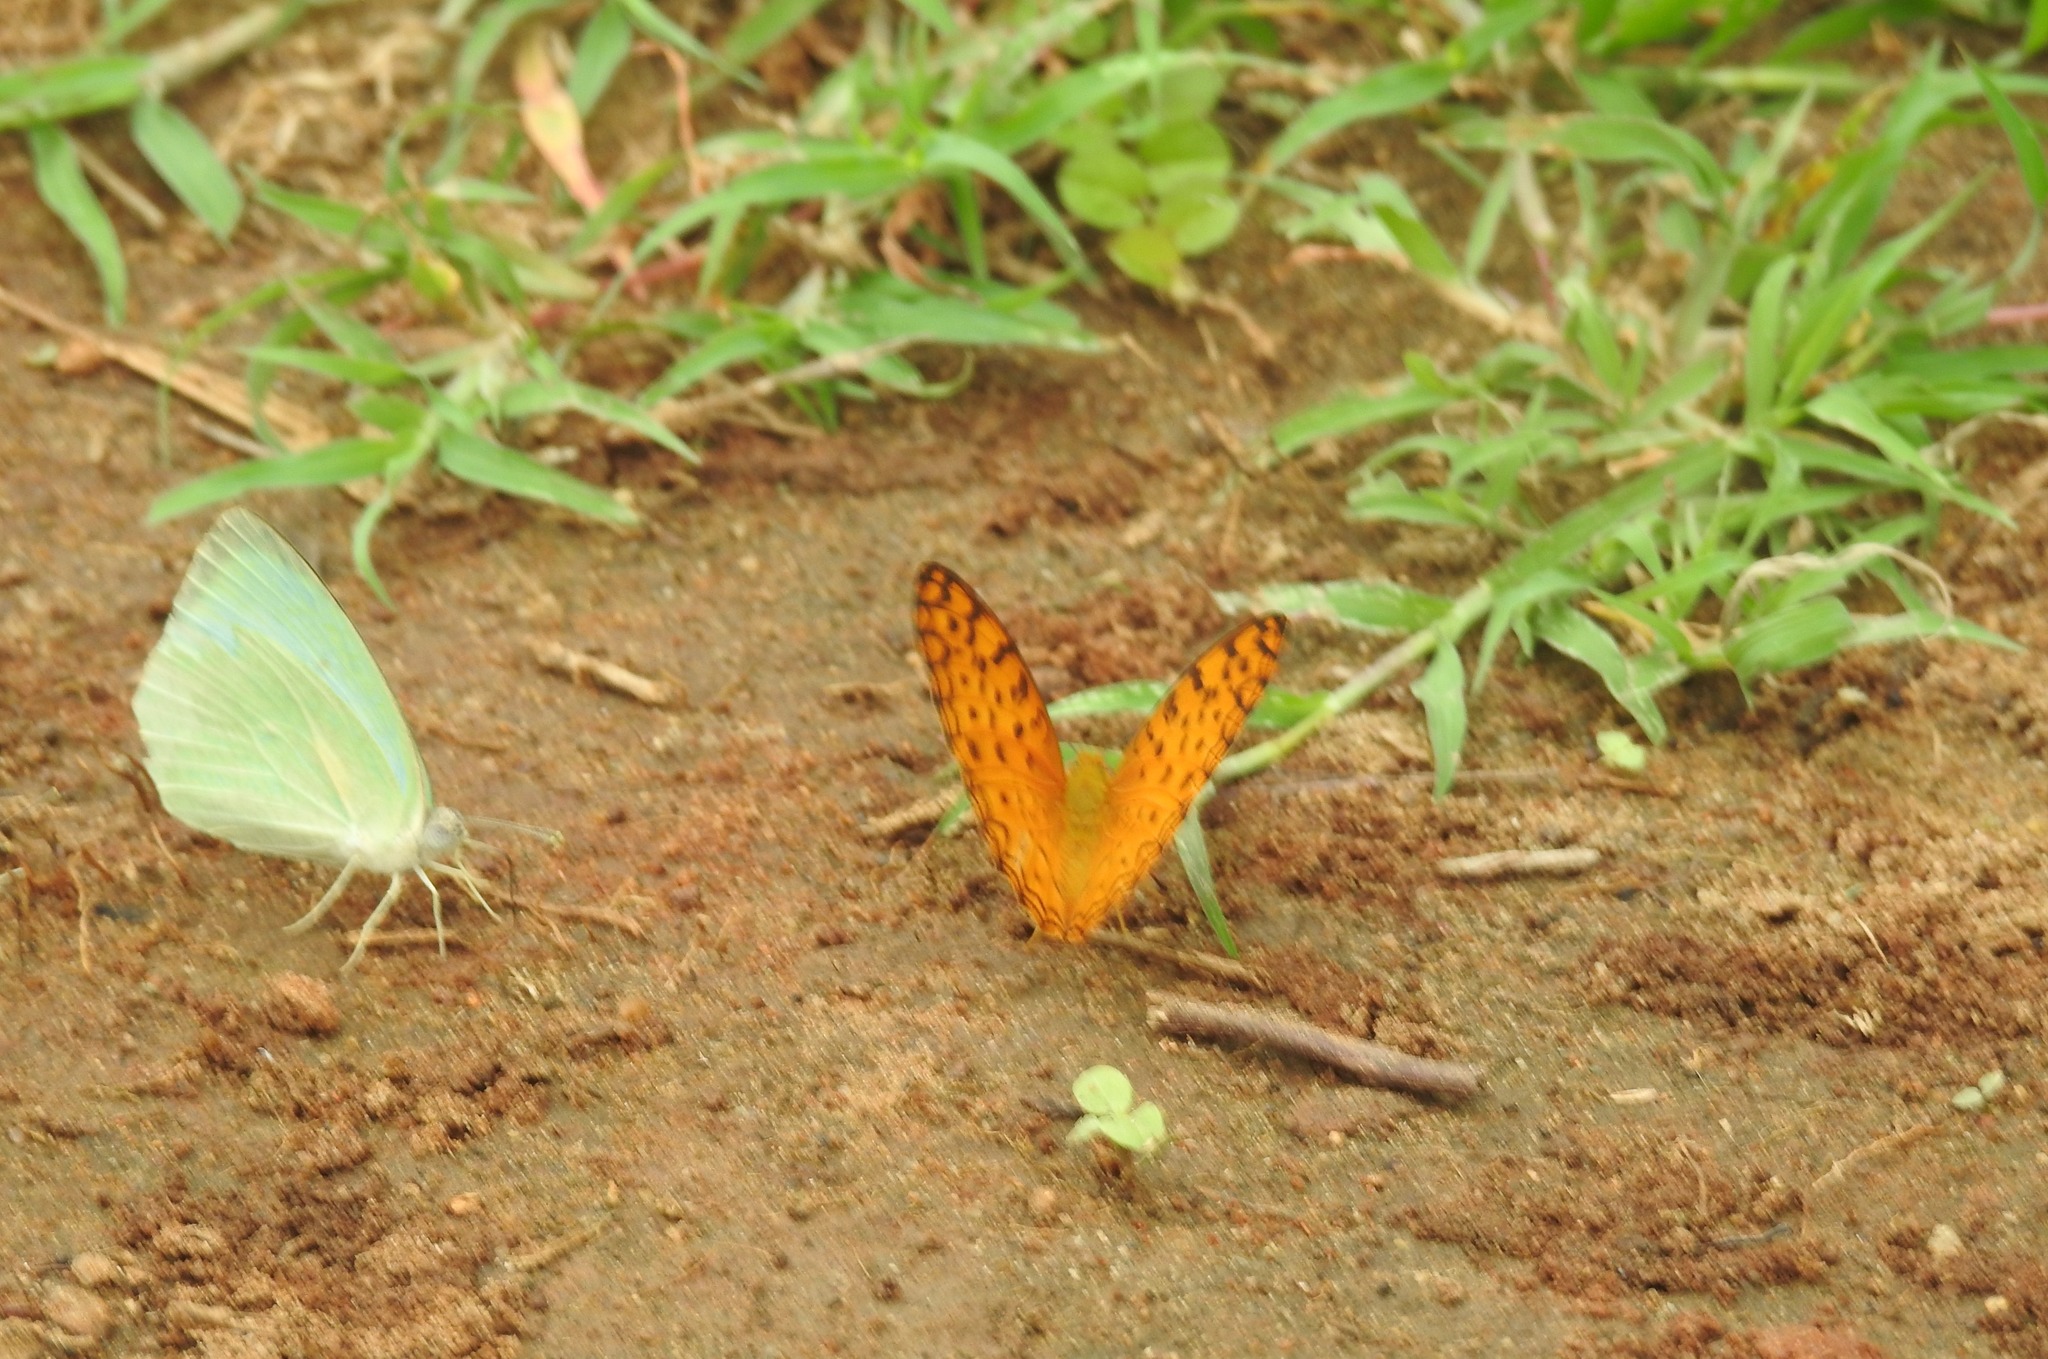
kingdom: Animalia
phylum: Arthropoda
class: Insecta
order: Lepidoptera
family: Nymphalidae
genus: Phalanta
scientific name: Phalanta phalantha
